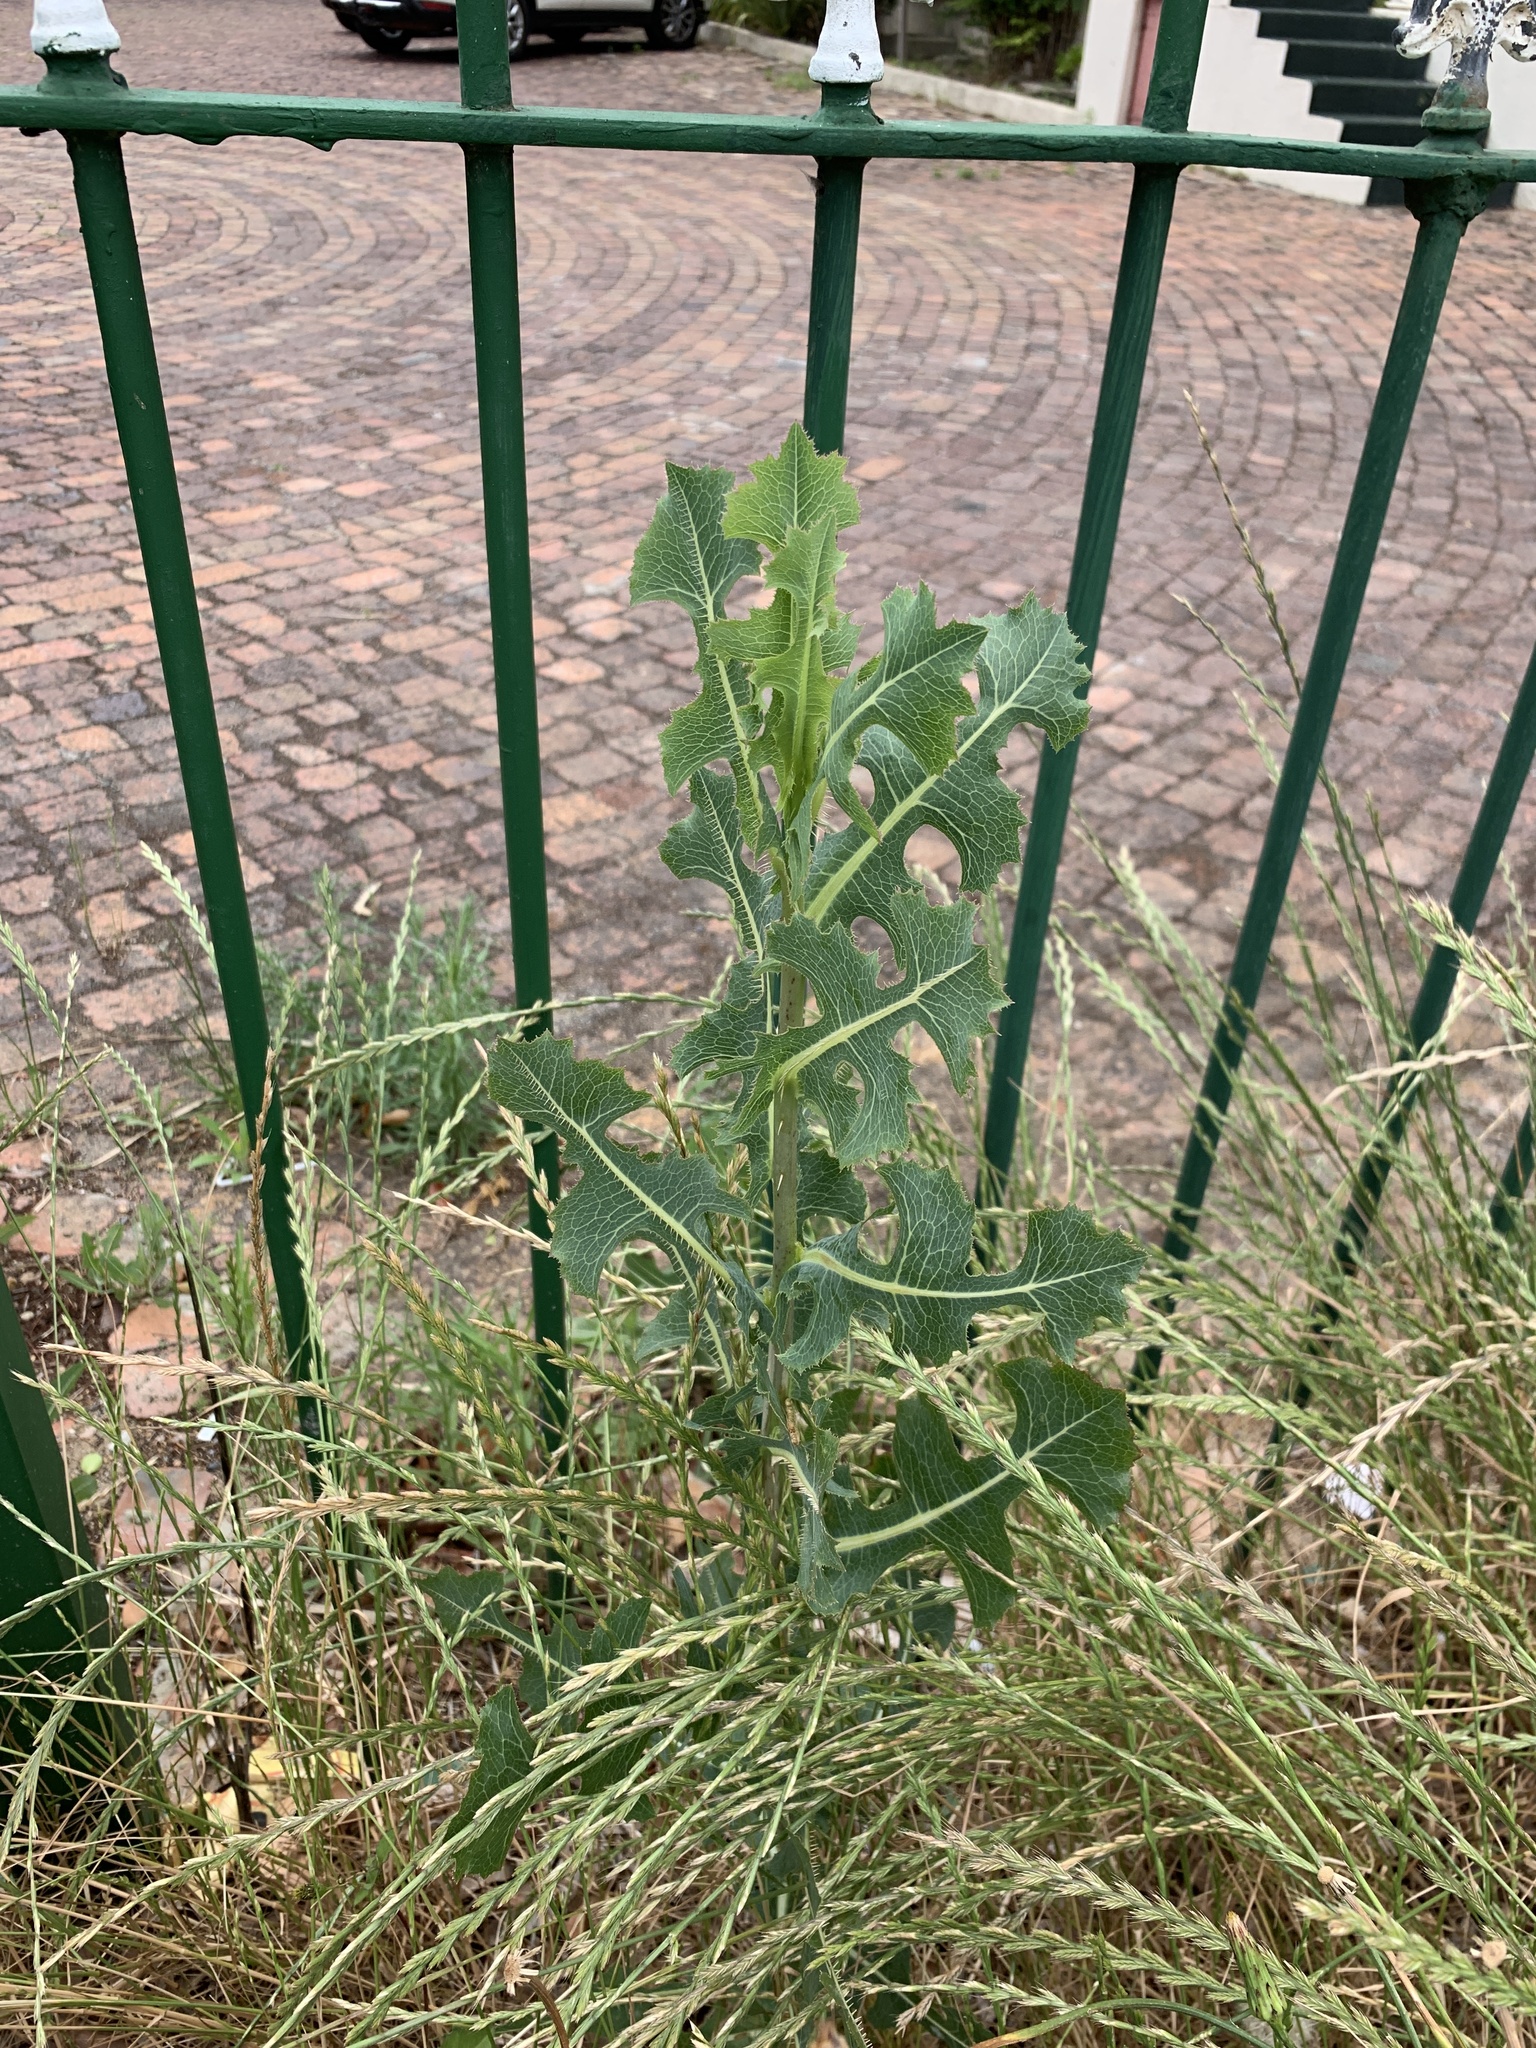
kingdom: Plantae
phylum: Tracheophyta
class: Magnoliopsida
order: Asterales
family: Asteraceae
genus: Lactuca
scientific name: Lactuca serriola
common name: Prickly lettuce
